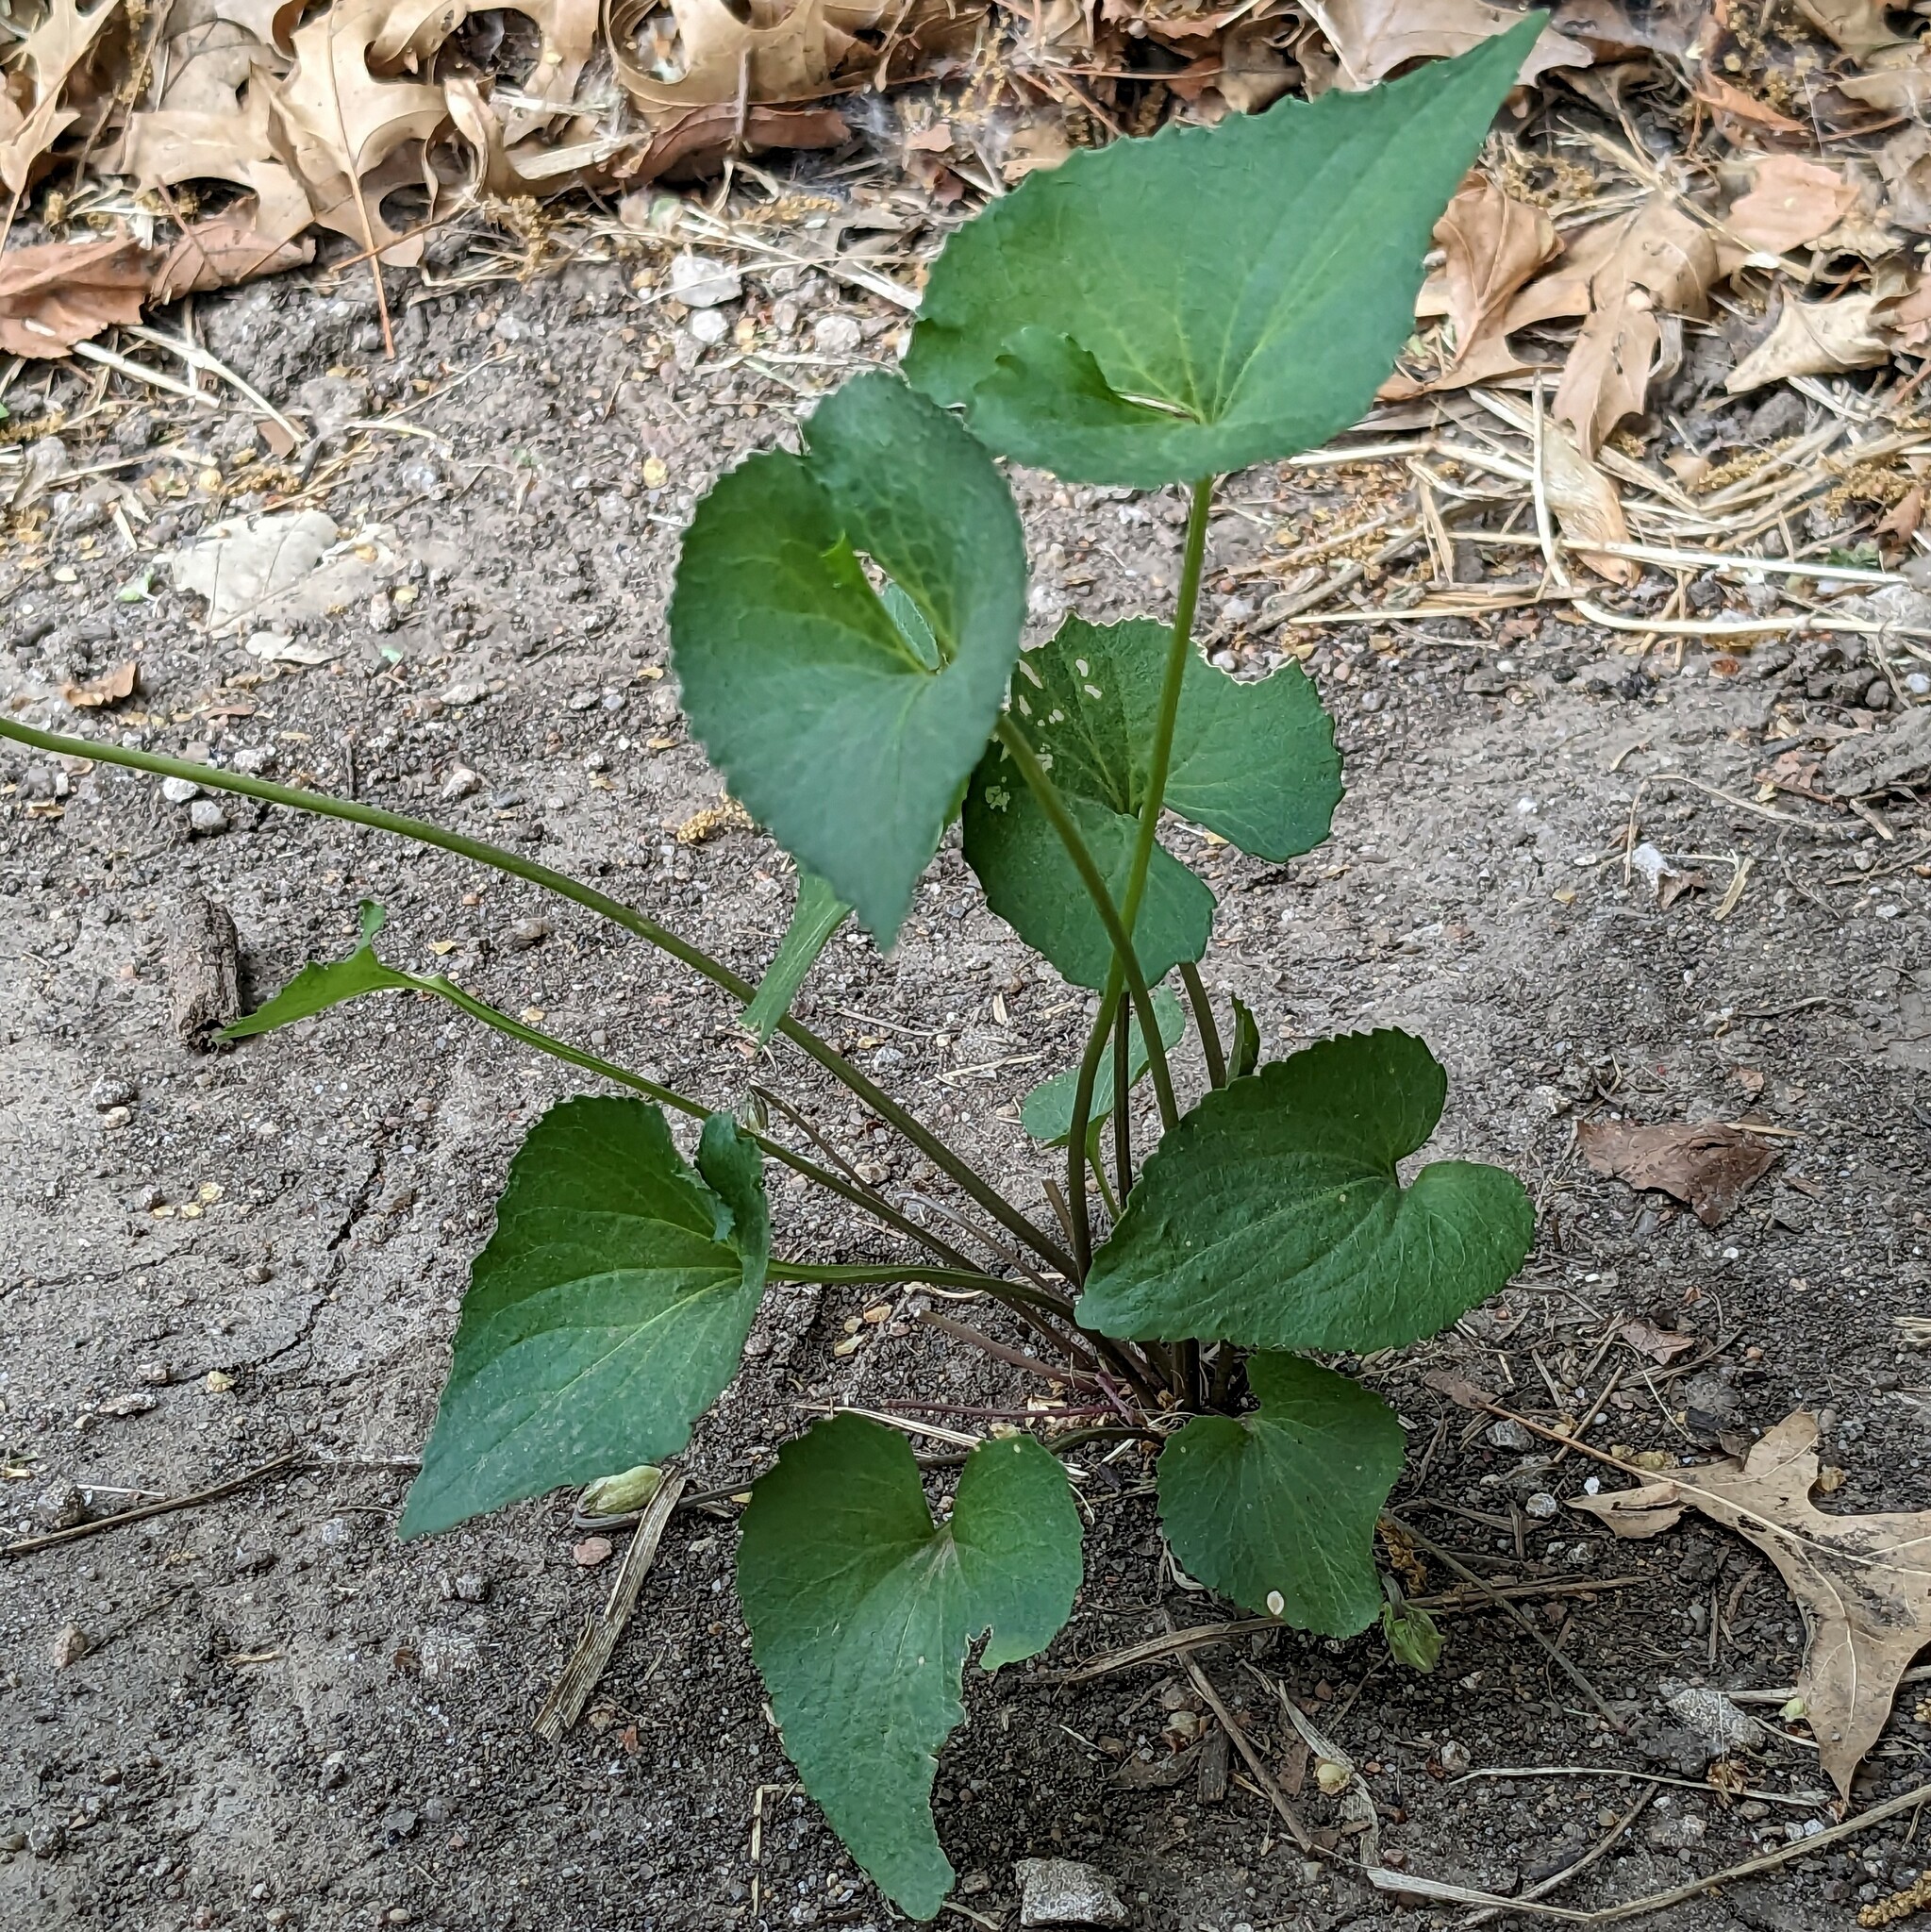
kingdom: Plantae
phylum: Tracheophyta
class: Magnoliopsida
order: Malpighiales
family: Violaceae
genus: Viola
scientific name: Viola sororia
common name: Dooryard violet
